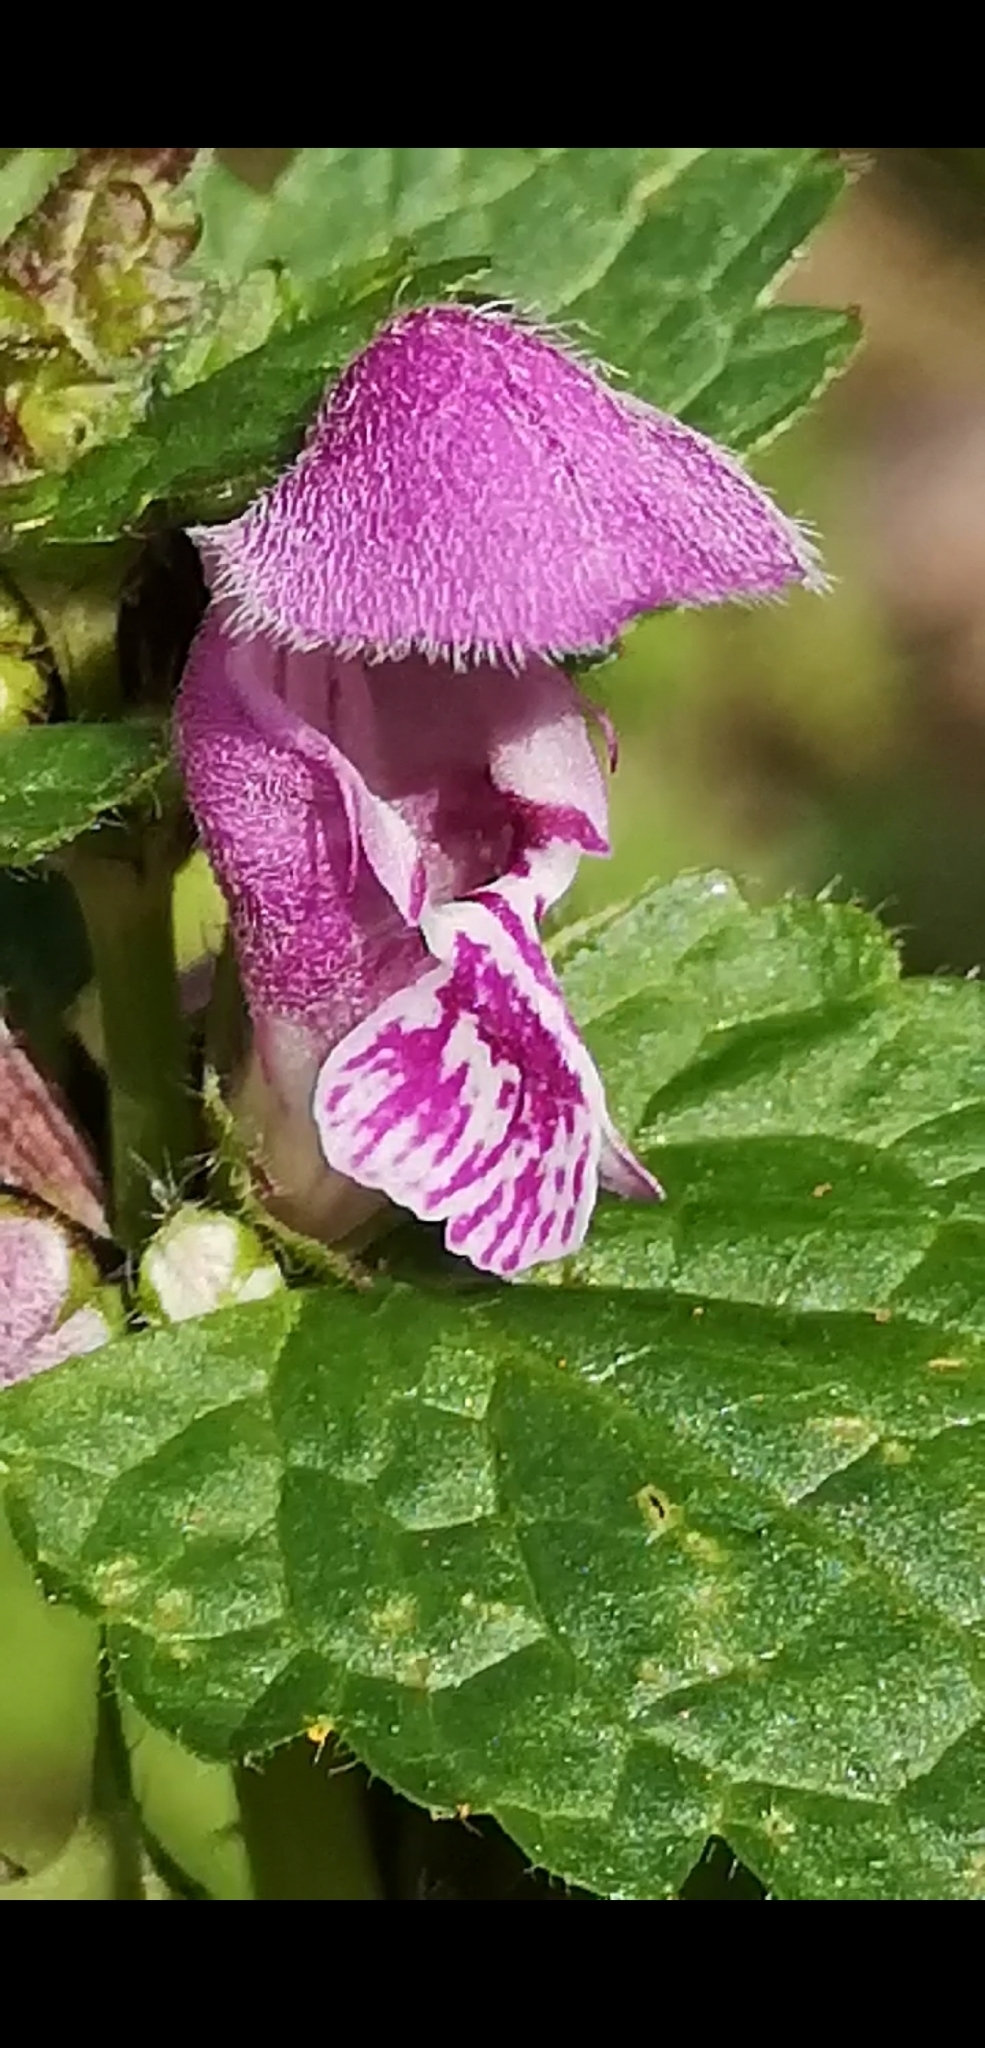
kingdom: Plantae
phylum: Tracheophyta
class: Magnoliopsida
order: Lamiales
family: Lamiaceae
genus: Lamium
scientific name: Lamium maculatum
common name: Spotted dead-nettle
